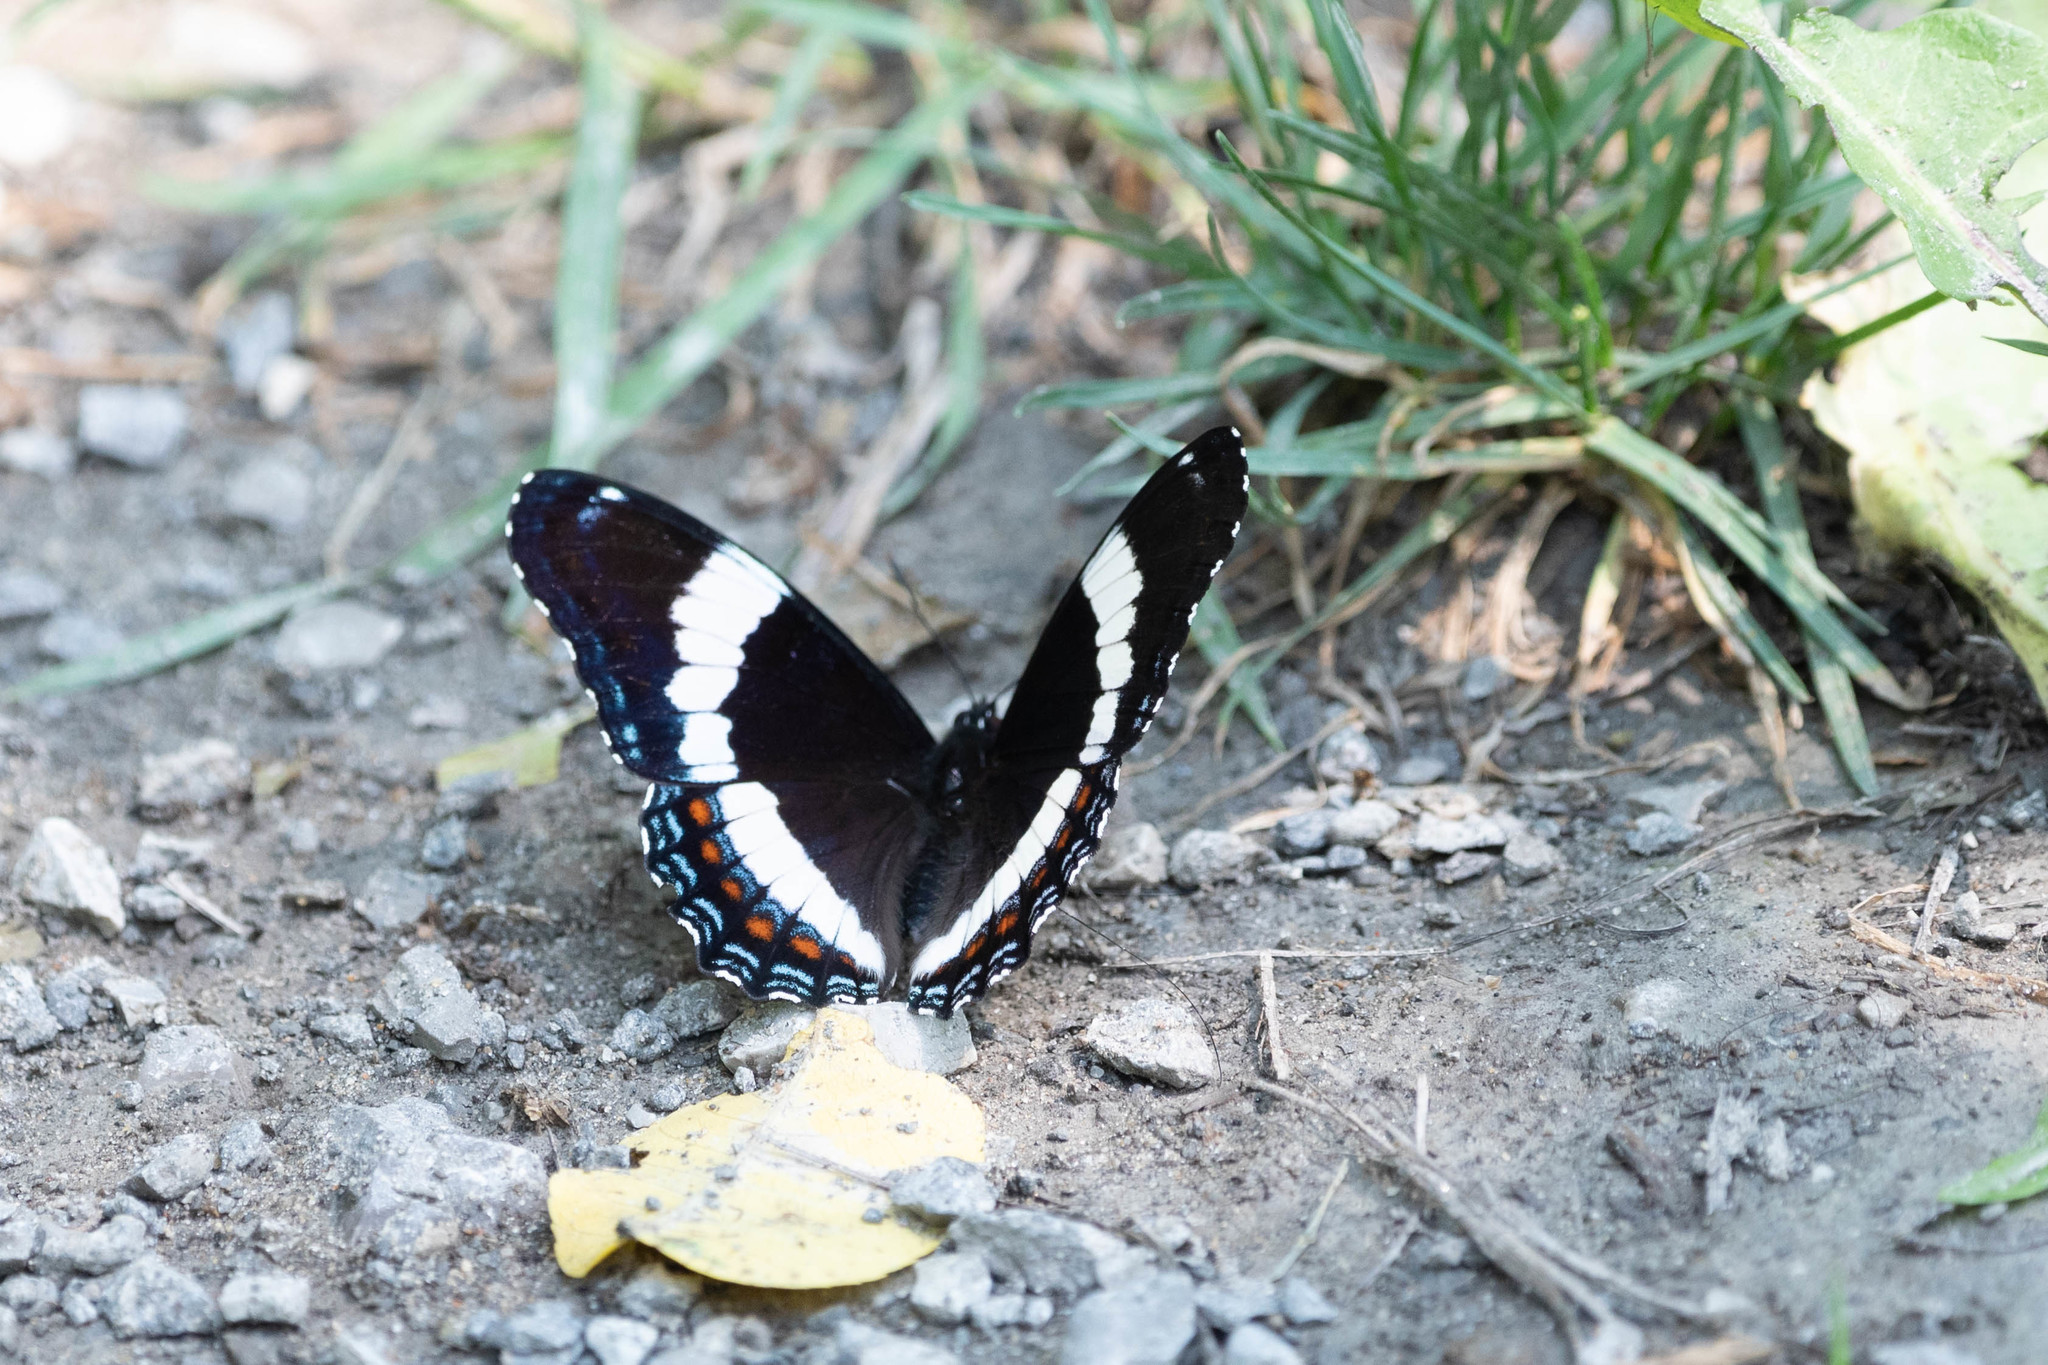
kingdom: Animalia
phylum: Arthropoda
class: Insecta
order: Lepidoptera
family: Nymphalidae
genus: Limenitis
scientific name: Limenitis arthemis
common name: Red-spotted admiral
